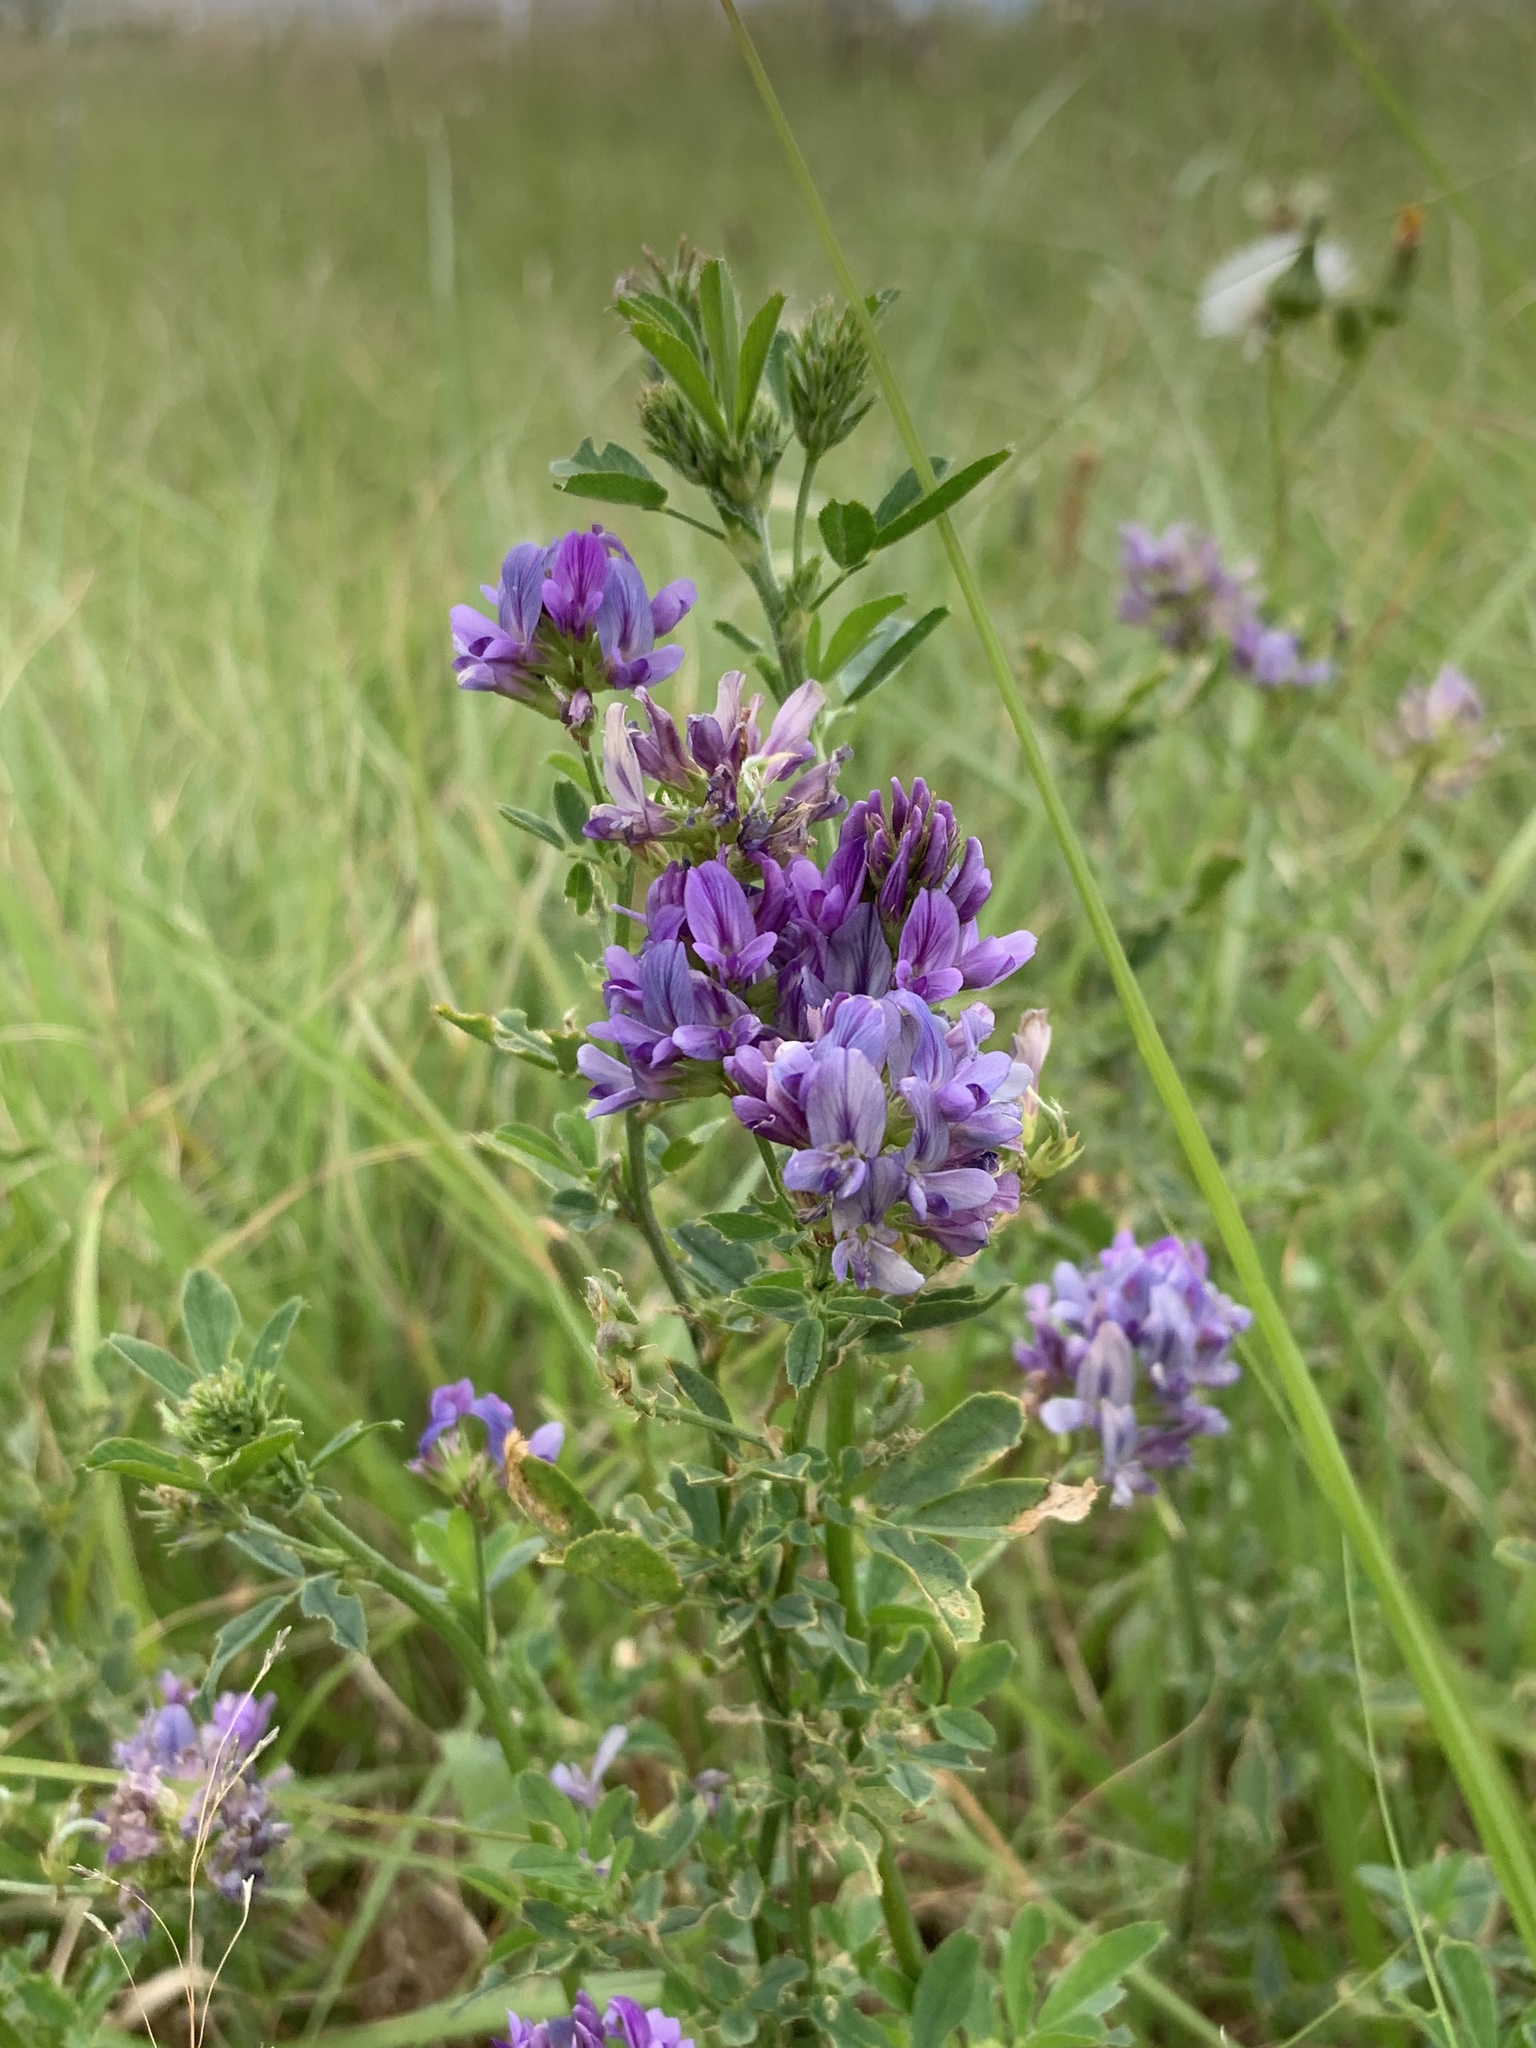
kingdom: Plantae
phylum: Tracheophyta
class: Magnoliopsida
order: Fabales
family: Fabaceae
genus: Medicago
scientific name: Medicago sativa
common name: Alfalfa
